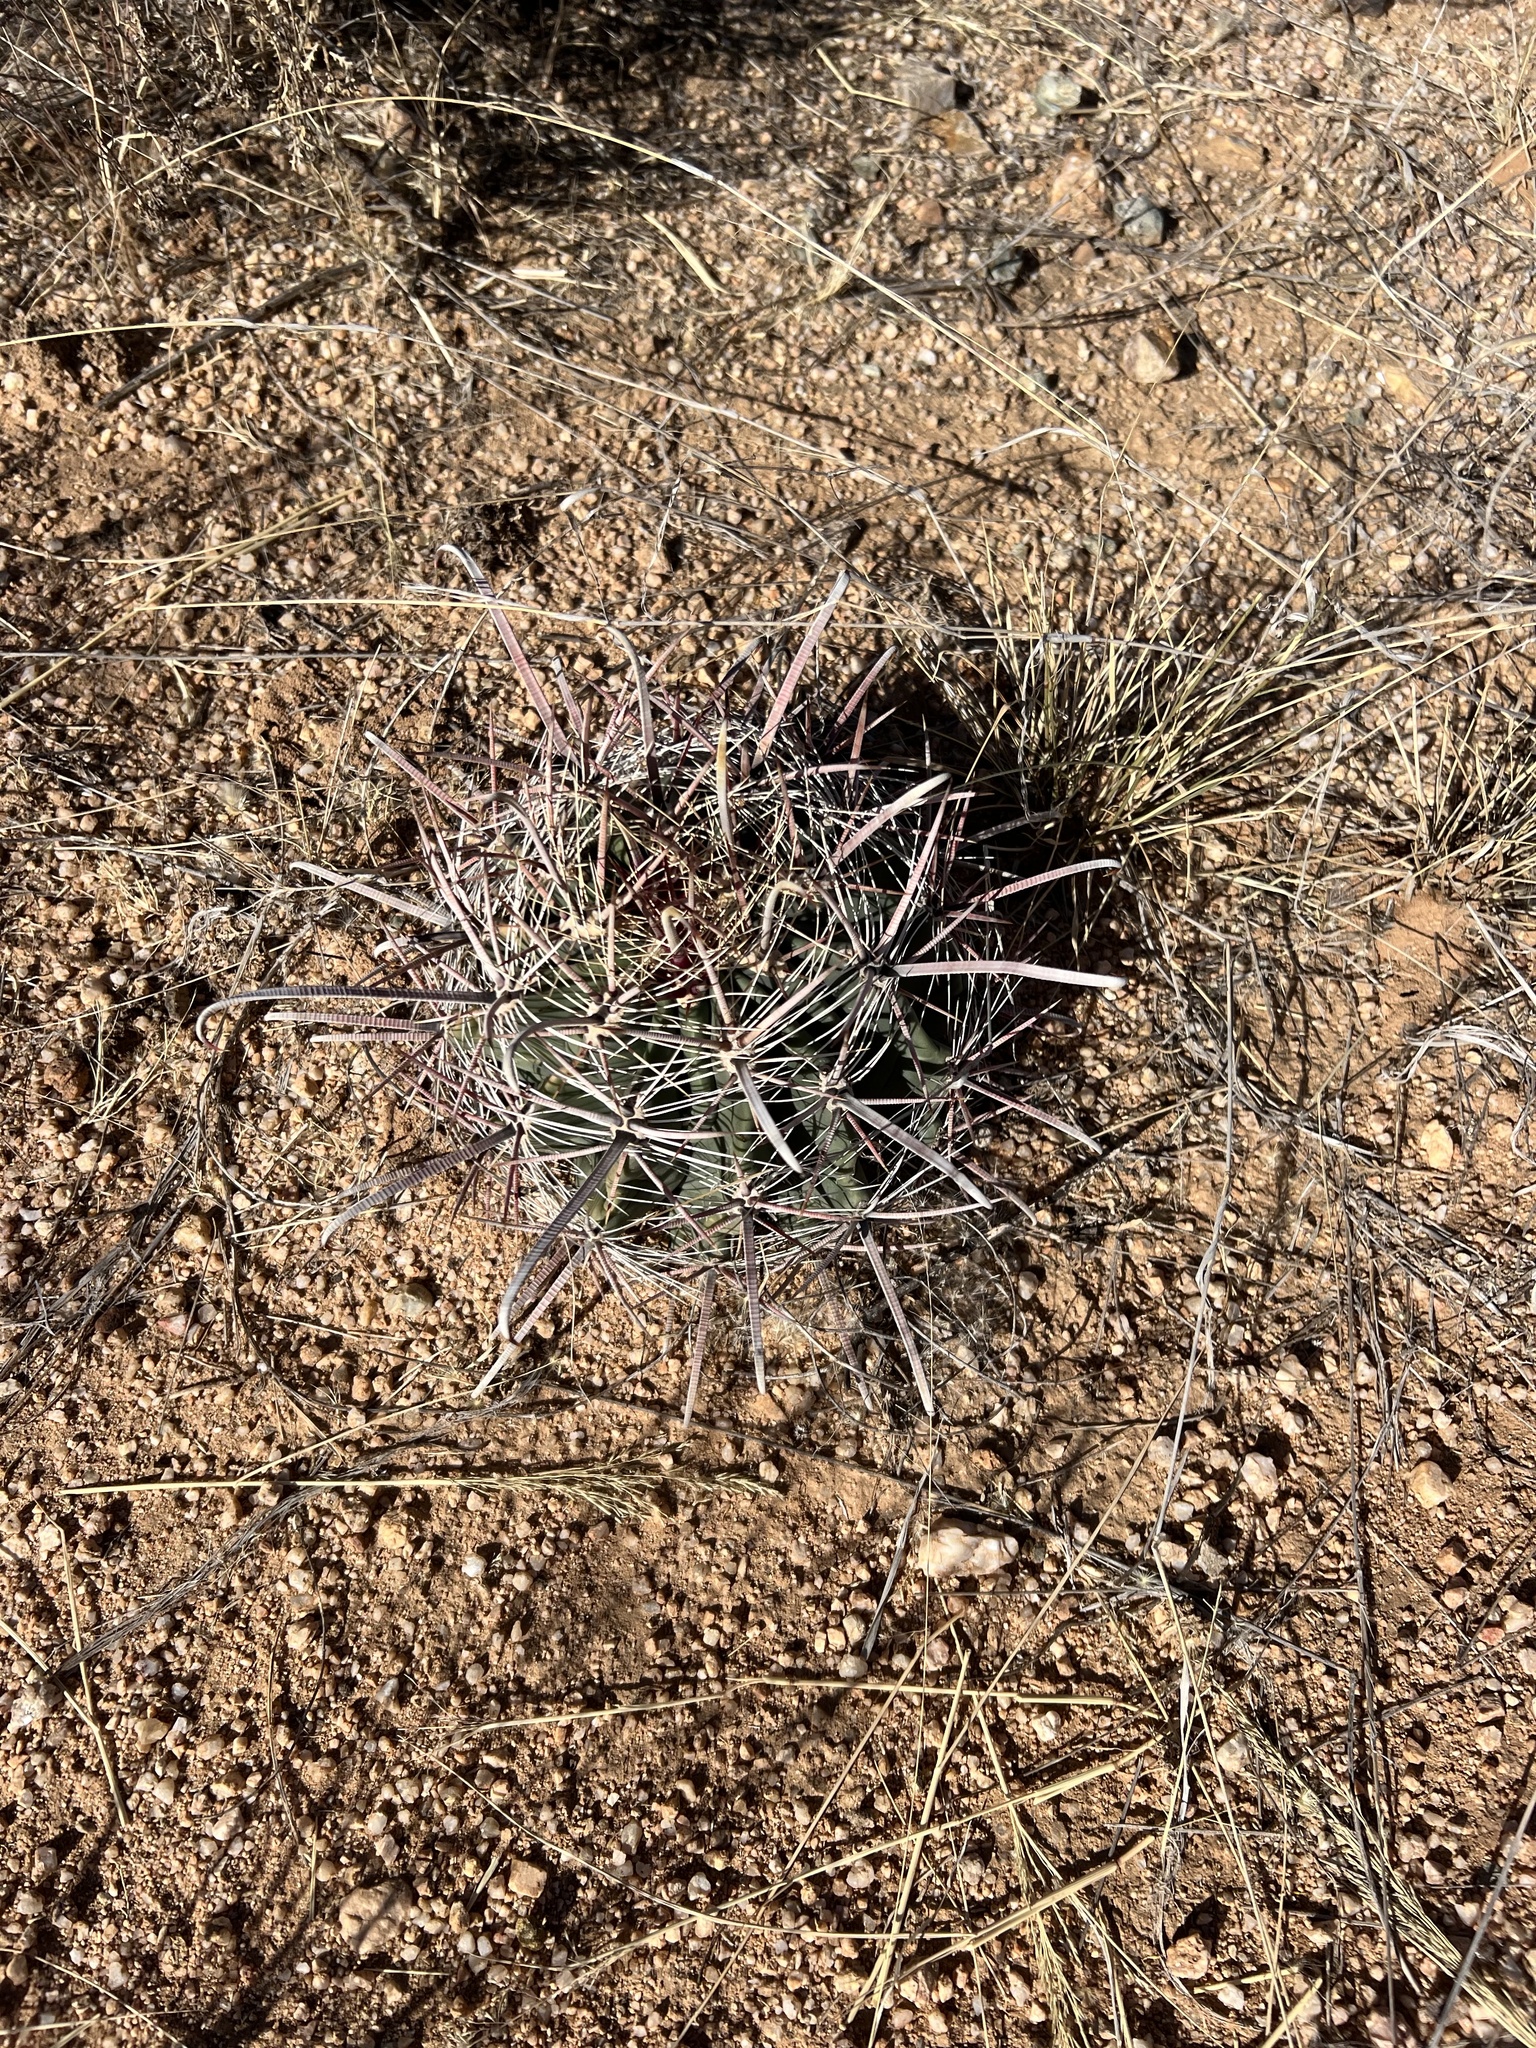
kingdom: Plantae
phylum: Tracheophyta
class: Magnoliopsida
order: Caryophyllales
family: Cactaceae
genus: Ferocactus
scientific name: Ferocactus wislizeni
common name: Candy barrel cactus
